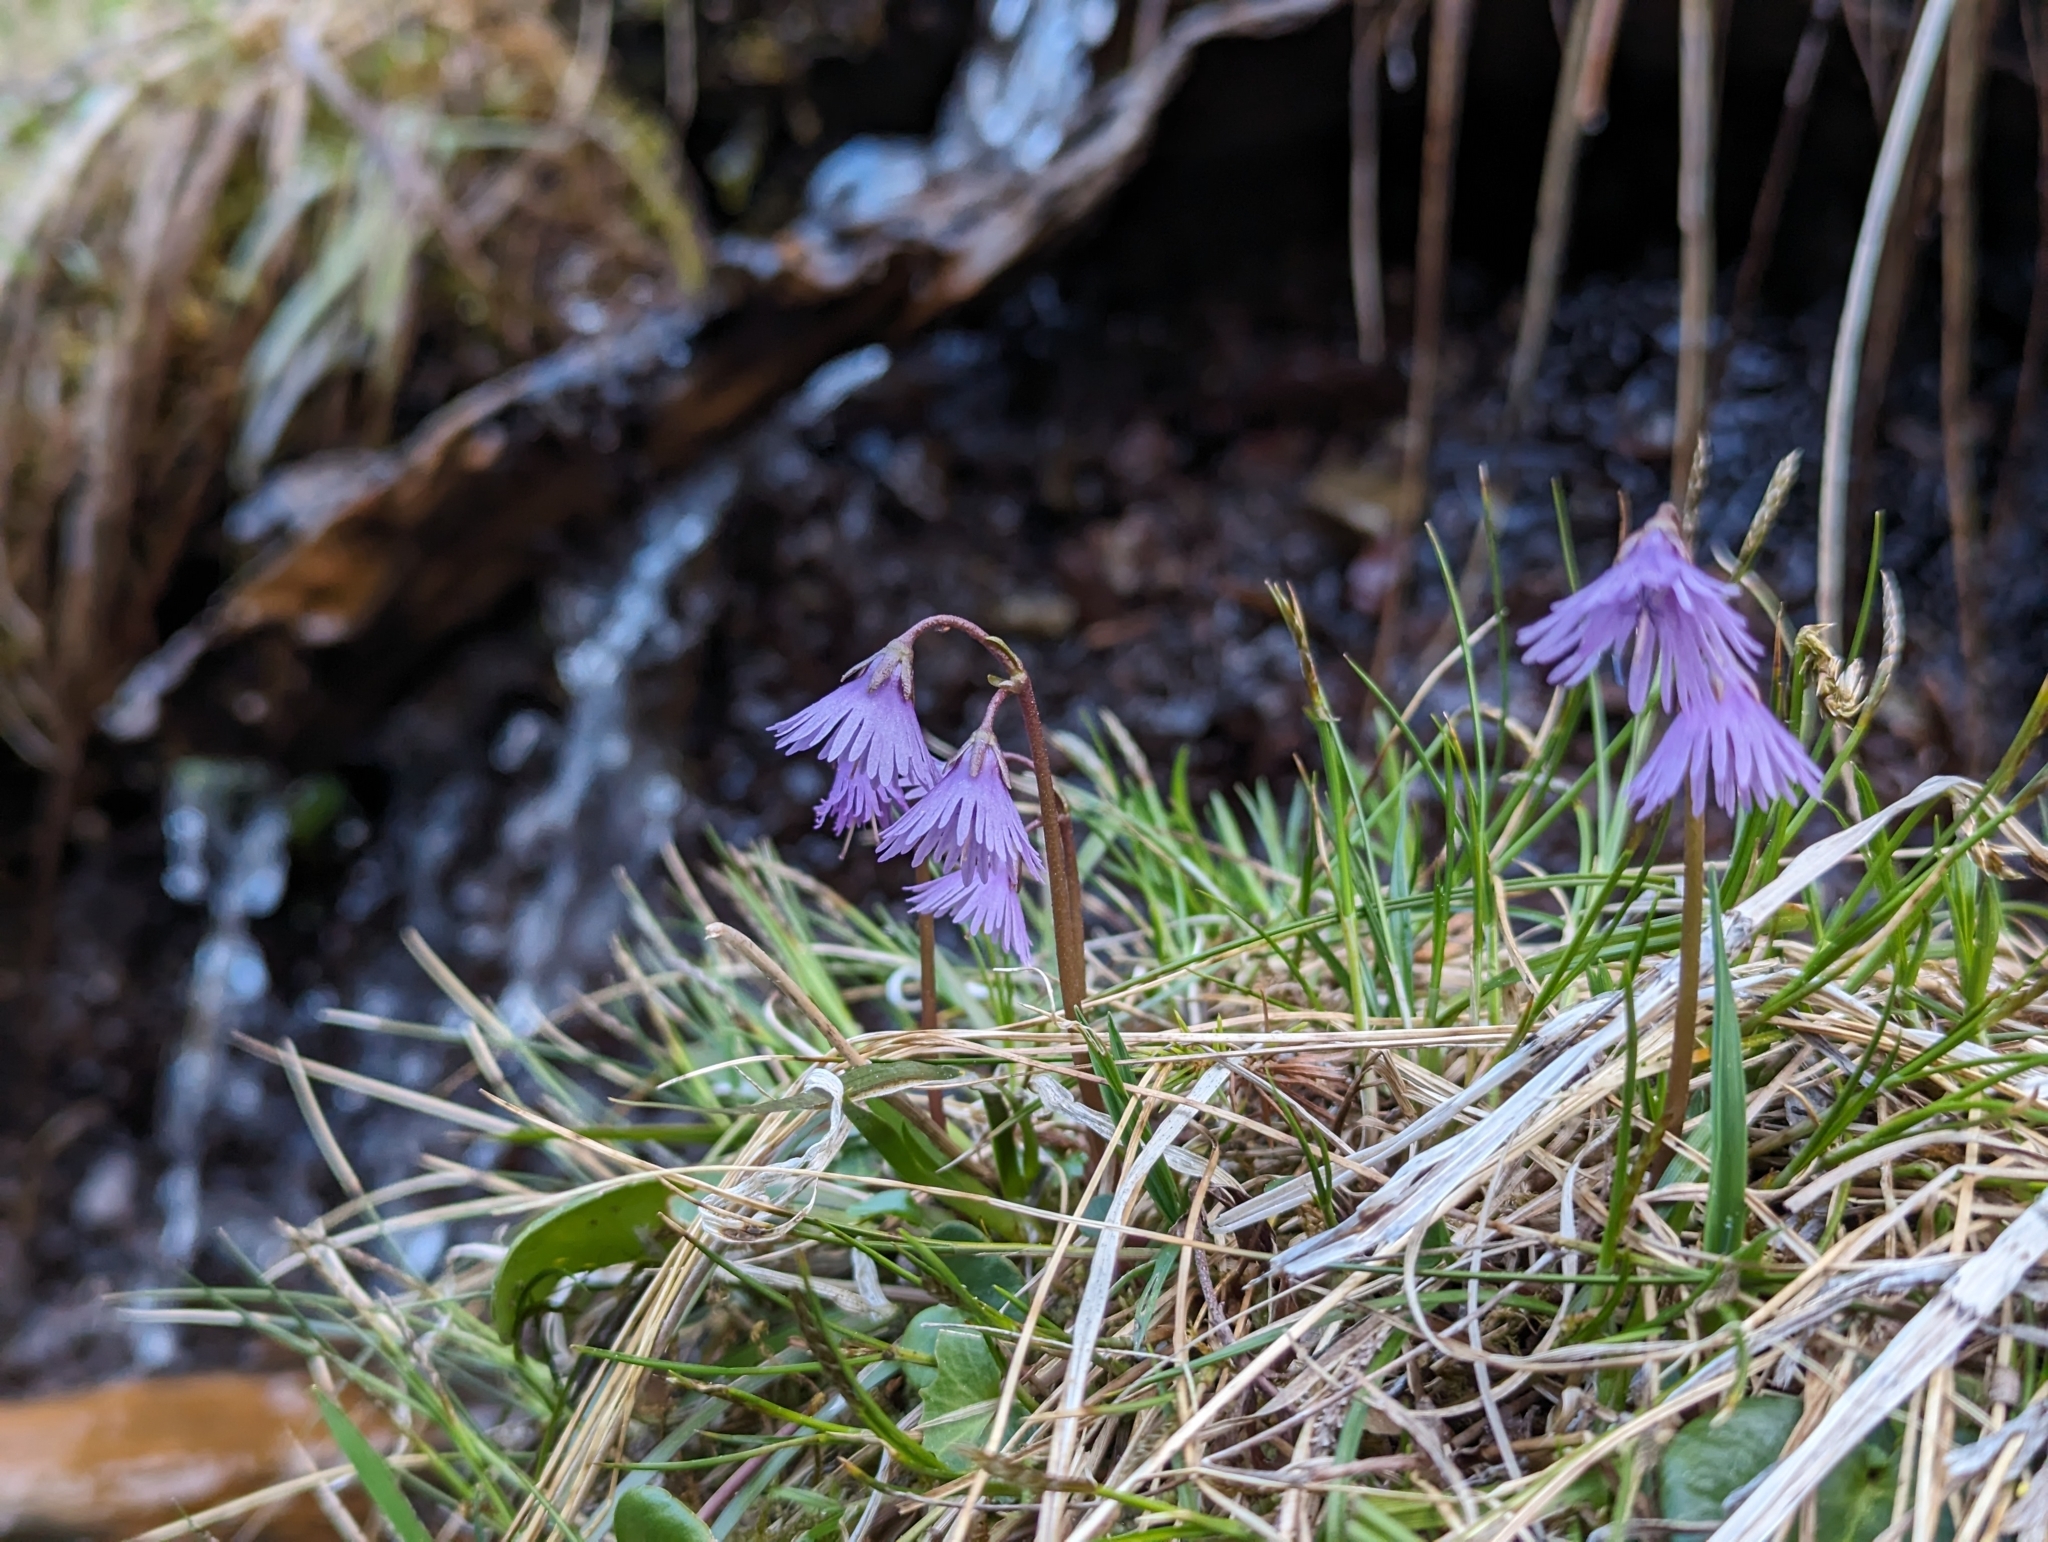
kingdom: Plantae
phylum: Tracheophyta
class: Magnoliopsida
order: Ericales
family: Primulaceae
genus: Soldanella
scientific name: Soldanella alpina
